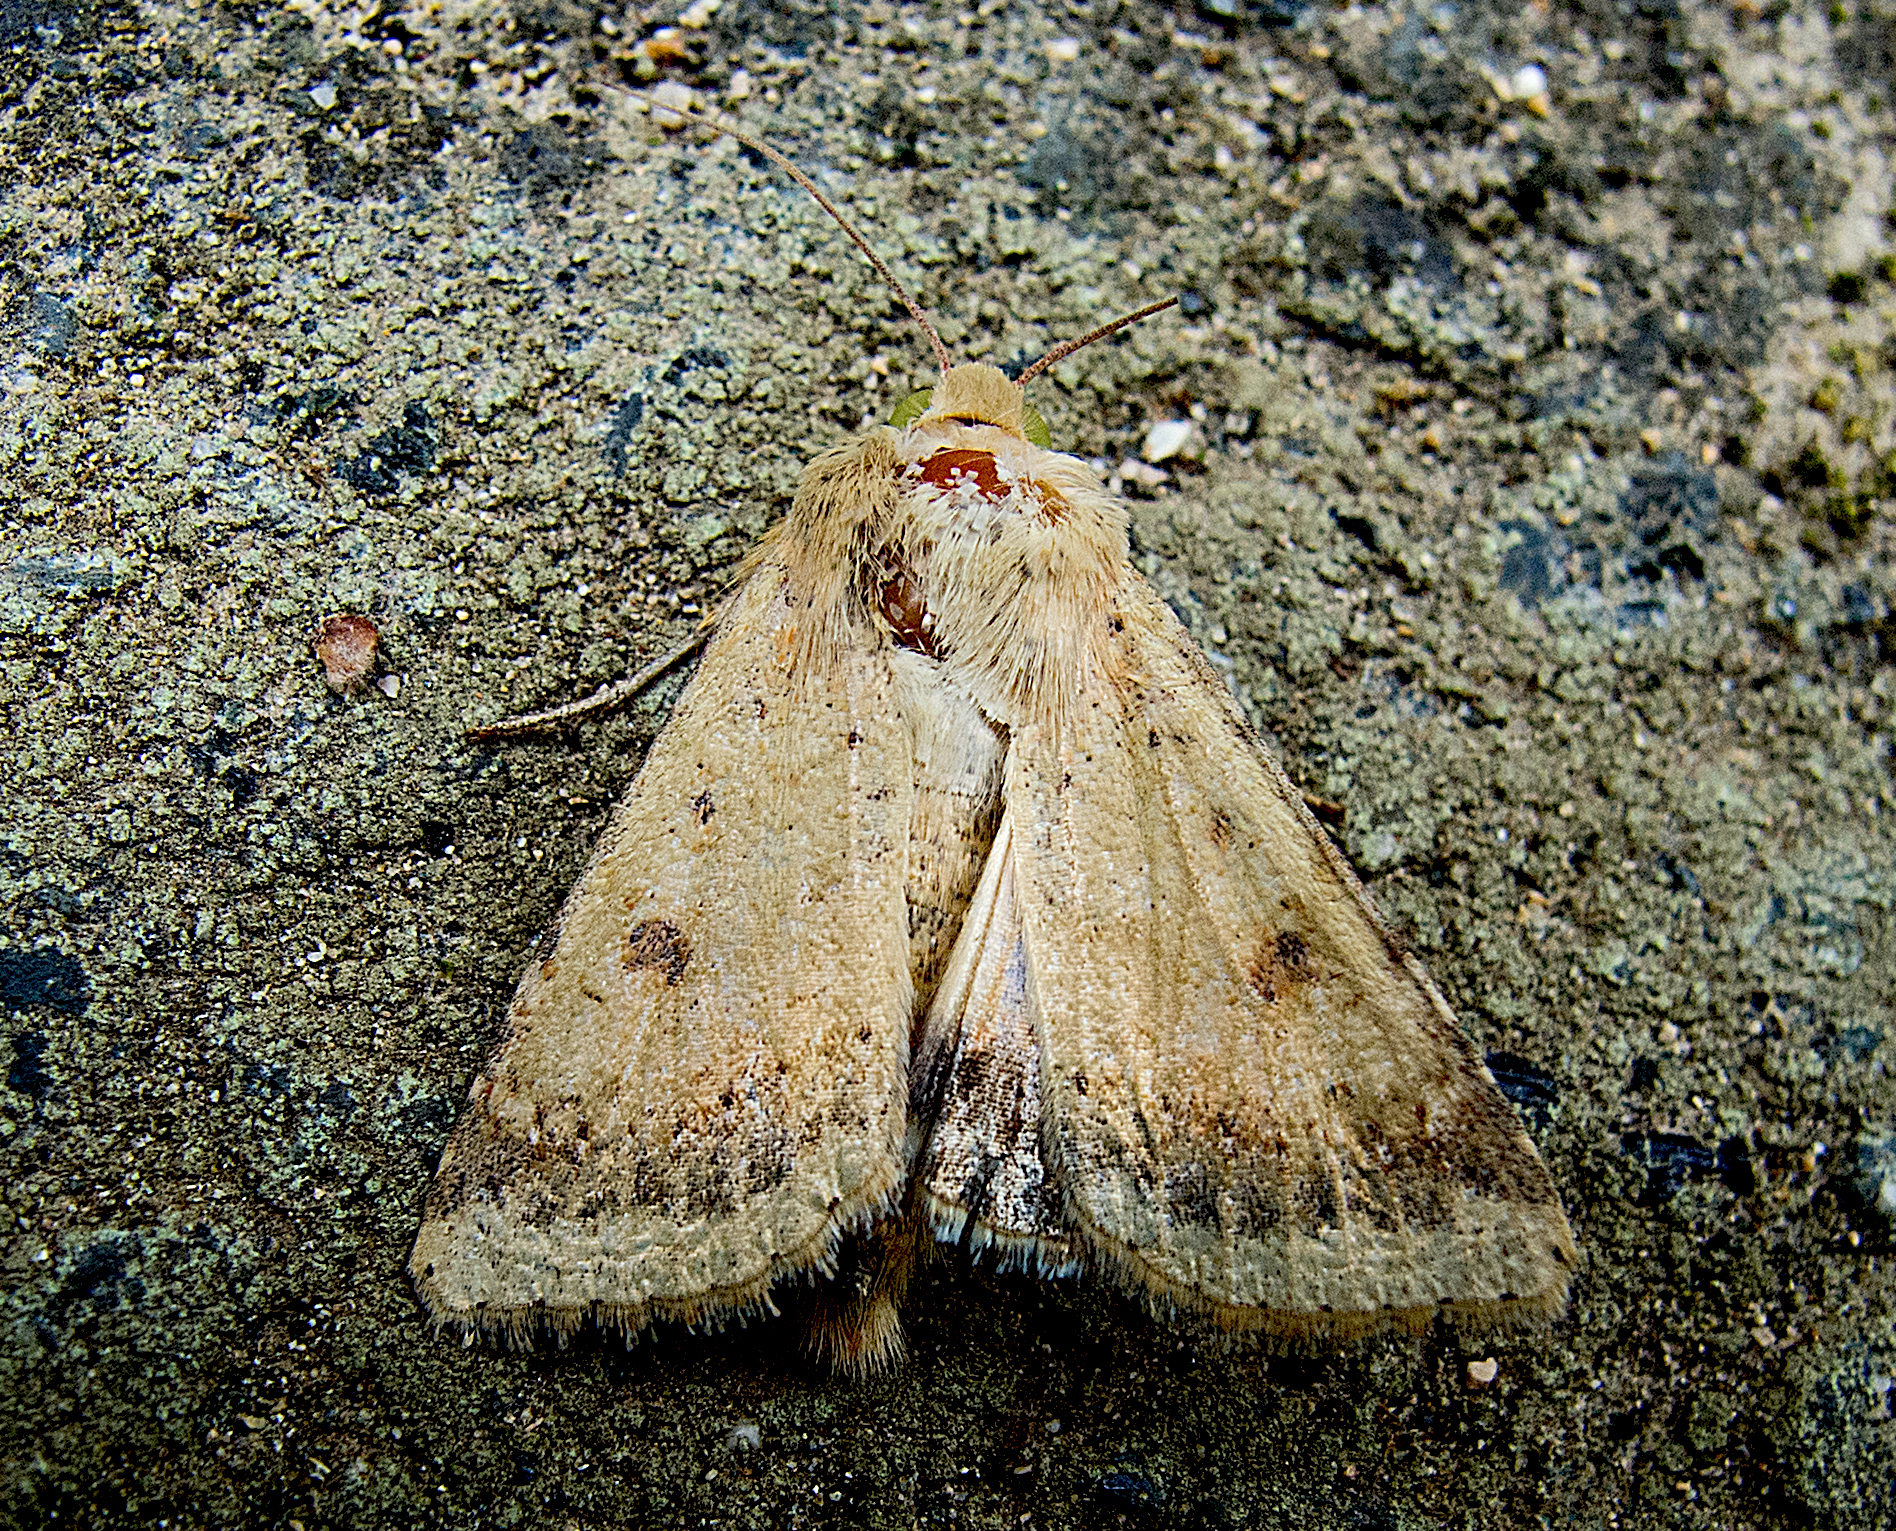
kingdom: Animalia
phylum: Arthropoda
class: Insecta
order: Lepidoptera
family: Noctuidae
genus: Helicoverpa
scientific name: Helicoverpa armigera
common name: Cotton bollworm
